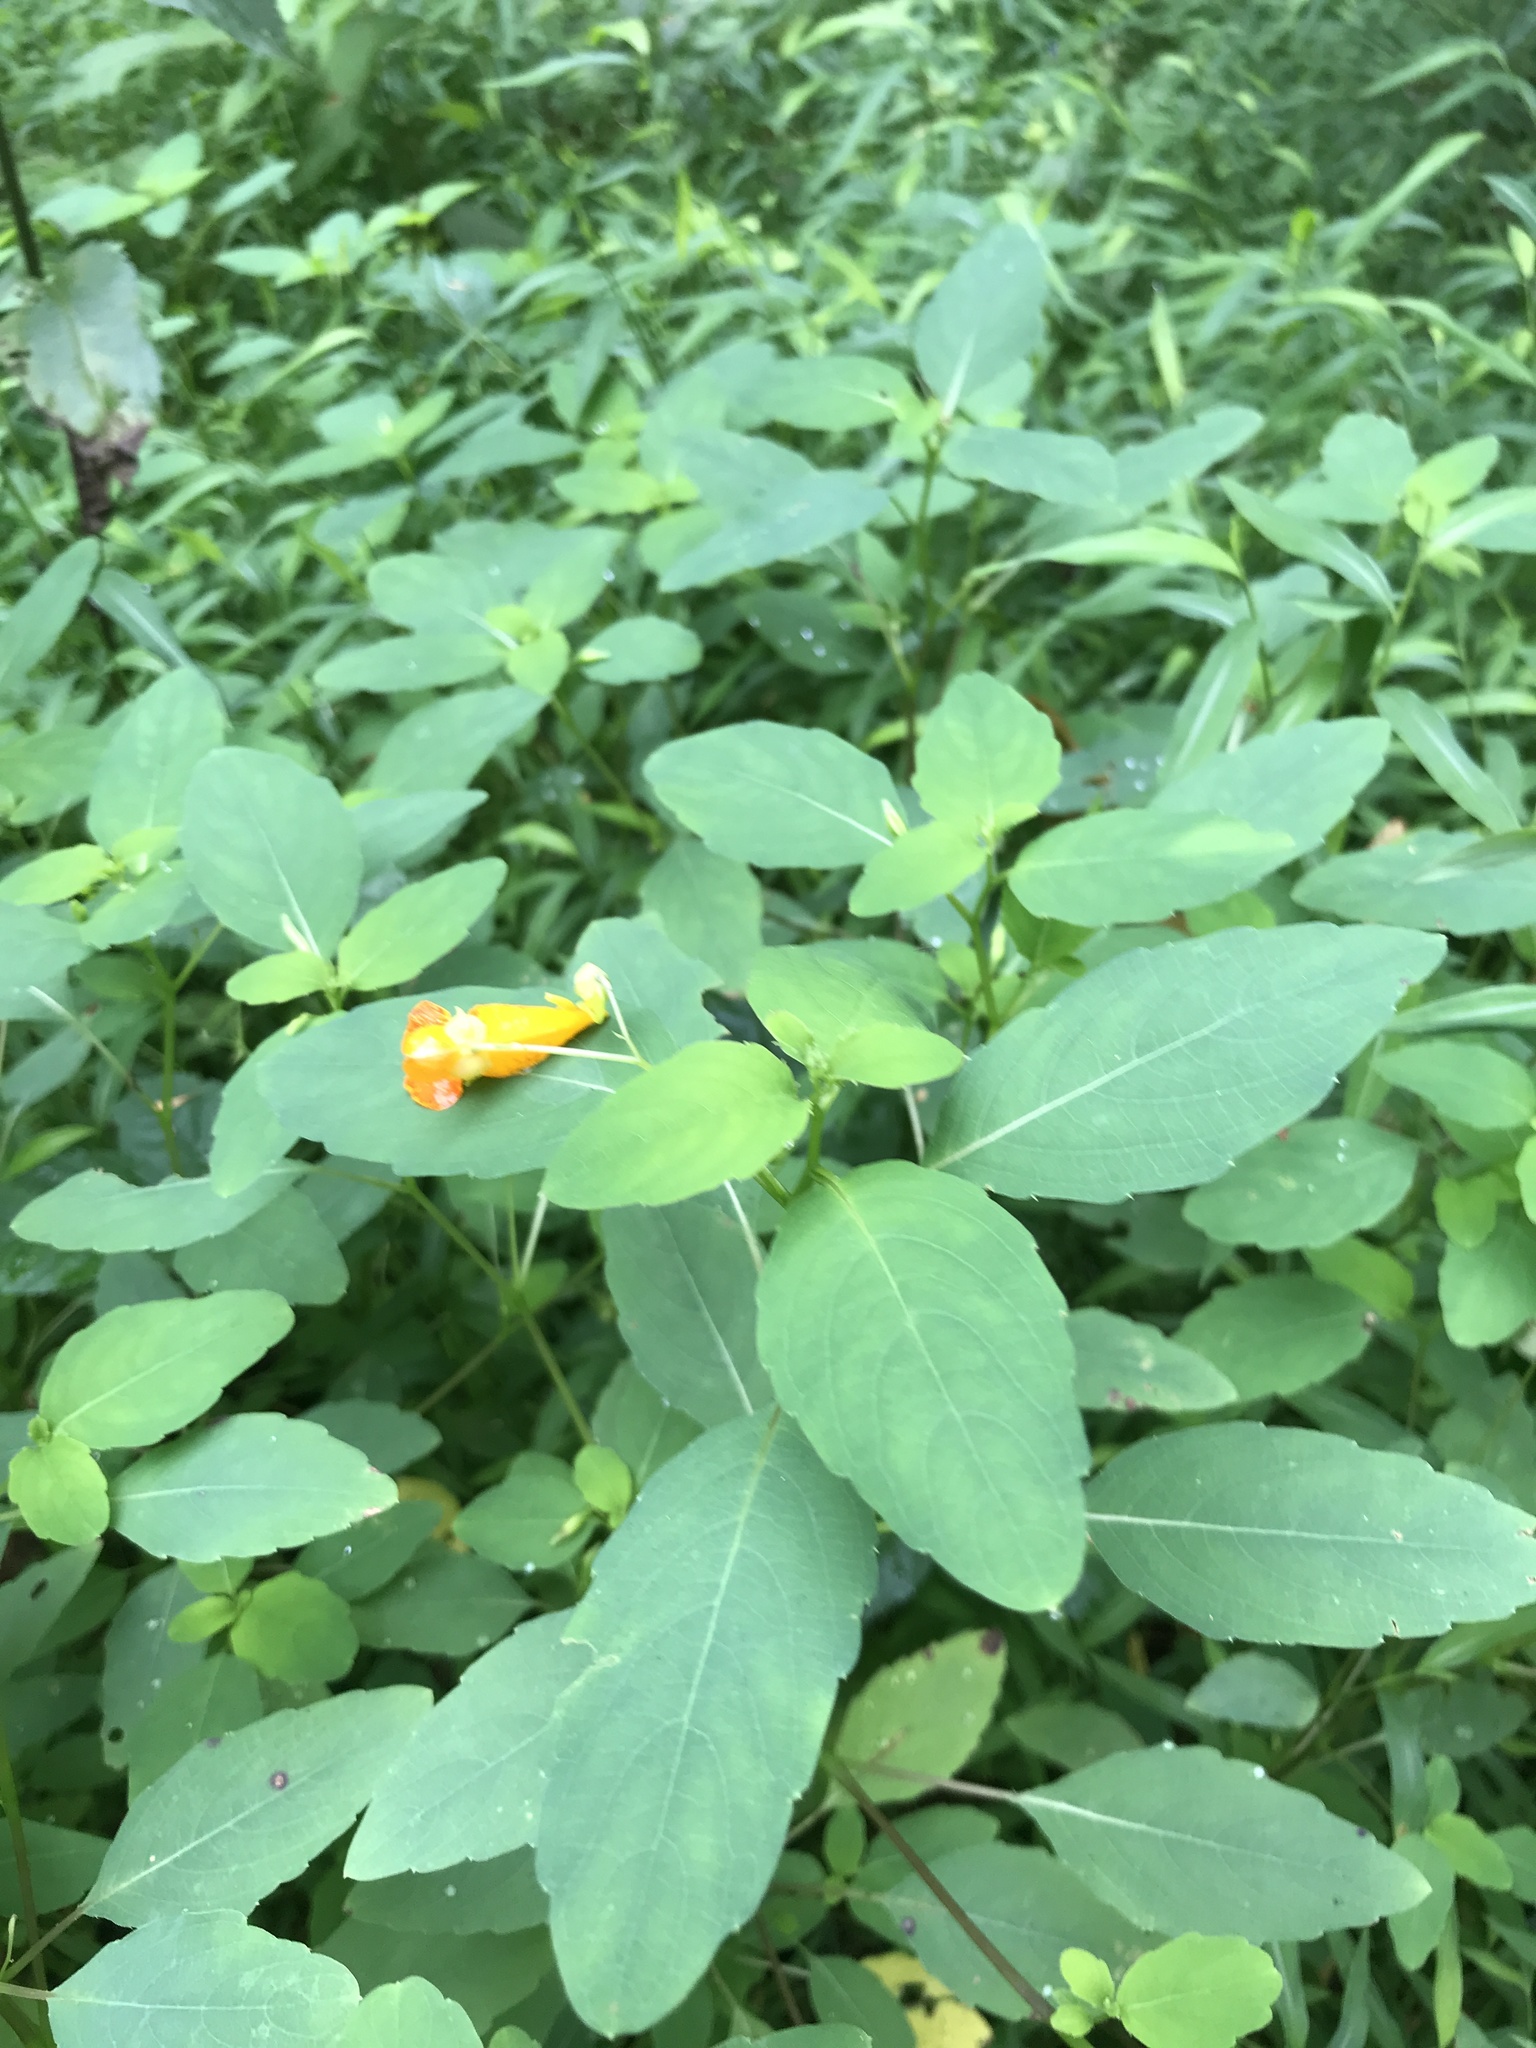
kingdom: Plantae
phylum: Tracheophyta
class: Magnoliopsida
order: Ericales
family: Balsaminaceae
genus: Impatiens
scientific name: Impatiens capensis
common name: Orange balsam
